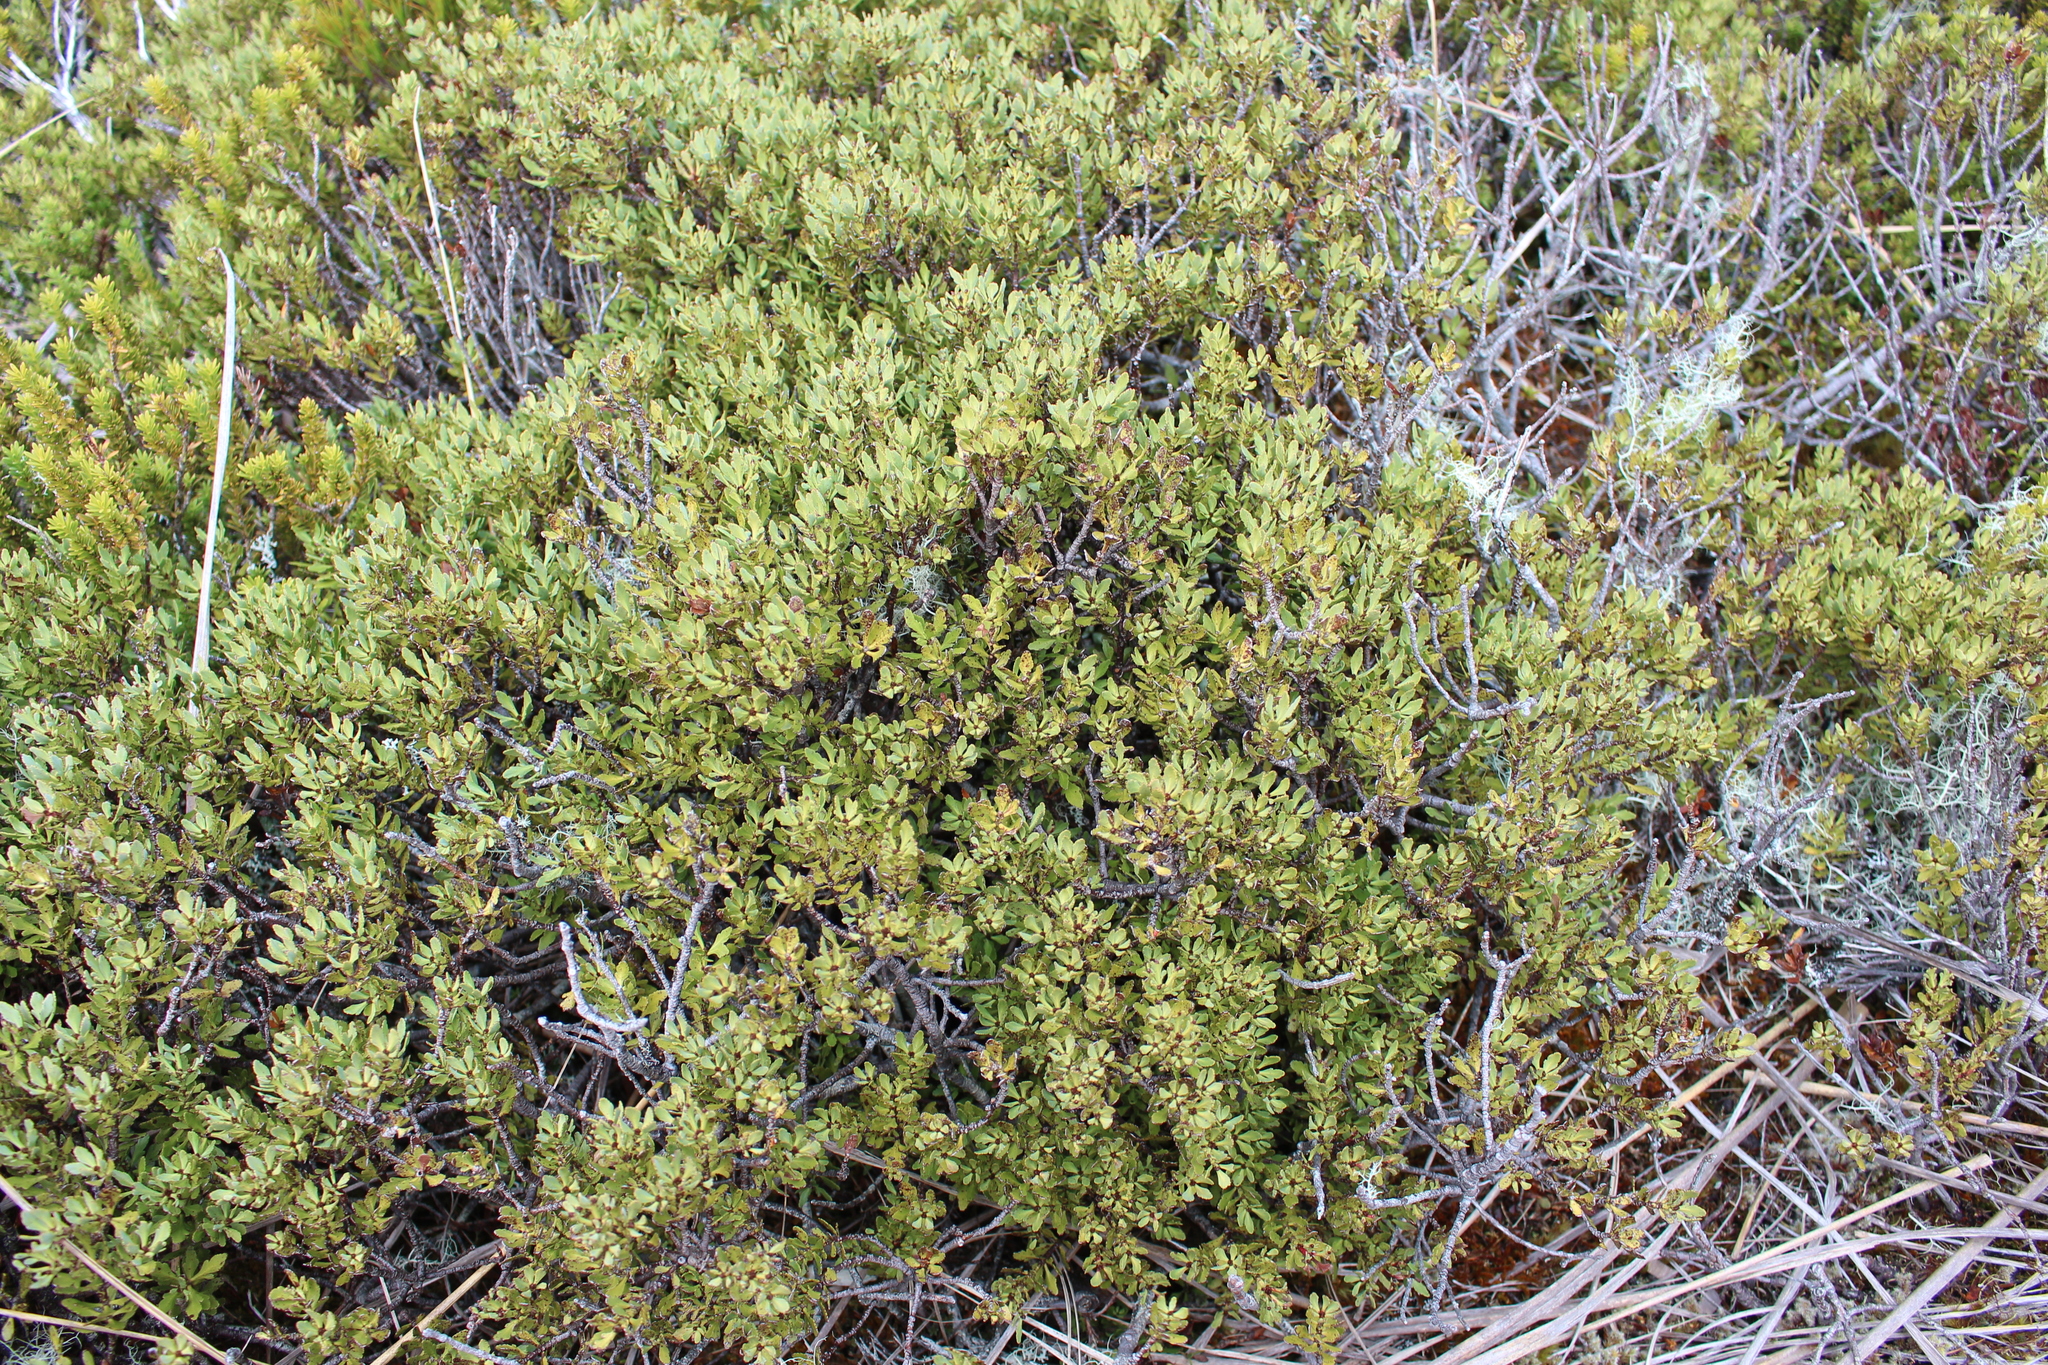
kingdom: Plantae
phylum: Tracheophyta
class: Pinopsida
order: Pinales
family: Phyllocladaceae
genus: Phyllocladus
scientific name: Phyllocladus trichomanoides
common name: Celery pine
